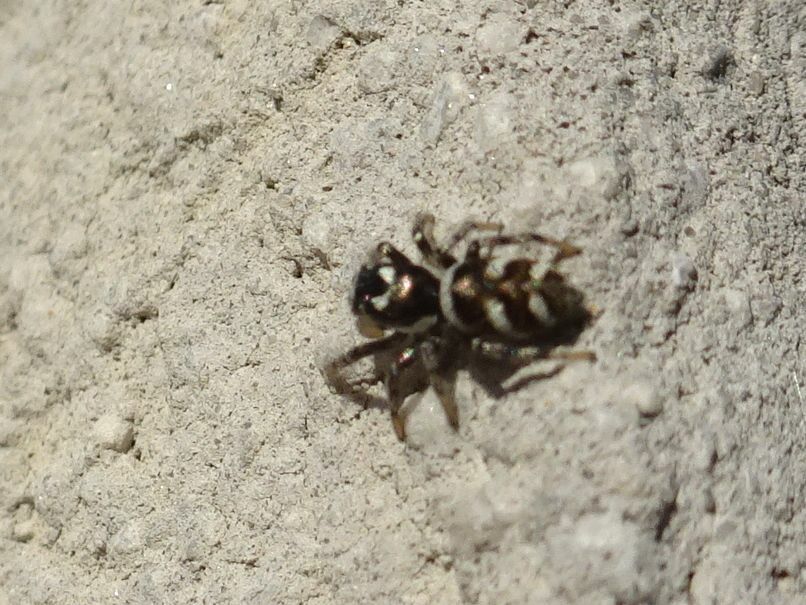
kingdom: Animalia
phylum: Arthropoda
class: Arachnida
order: Araneae
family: Salticidae
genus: Salticus
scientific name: Salticus scenicus
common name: Zebra jumper
